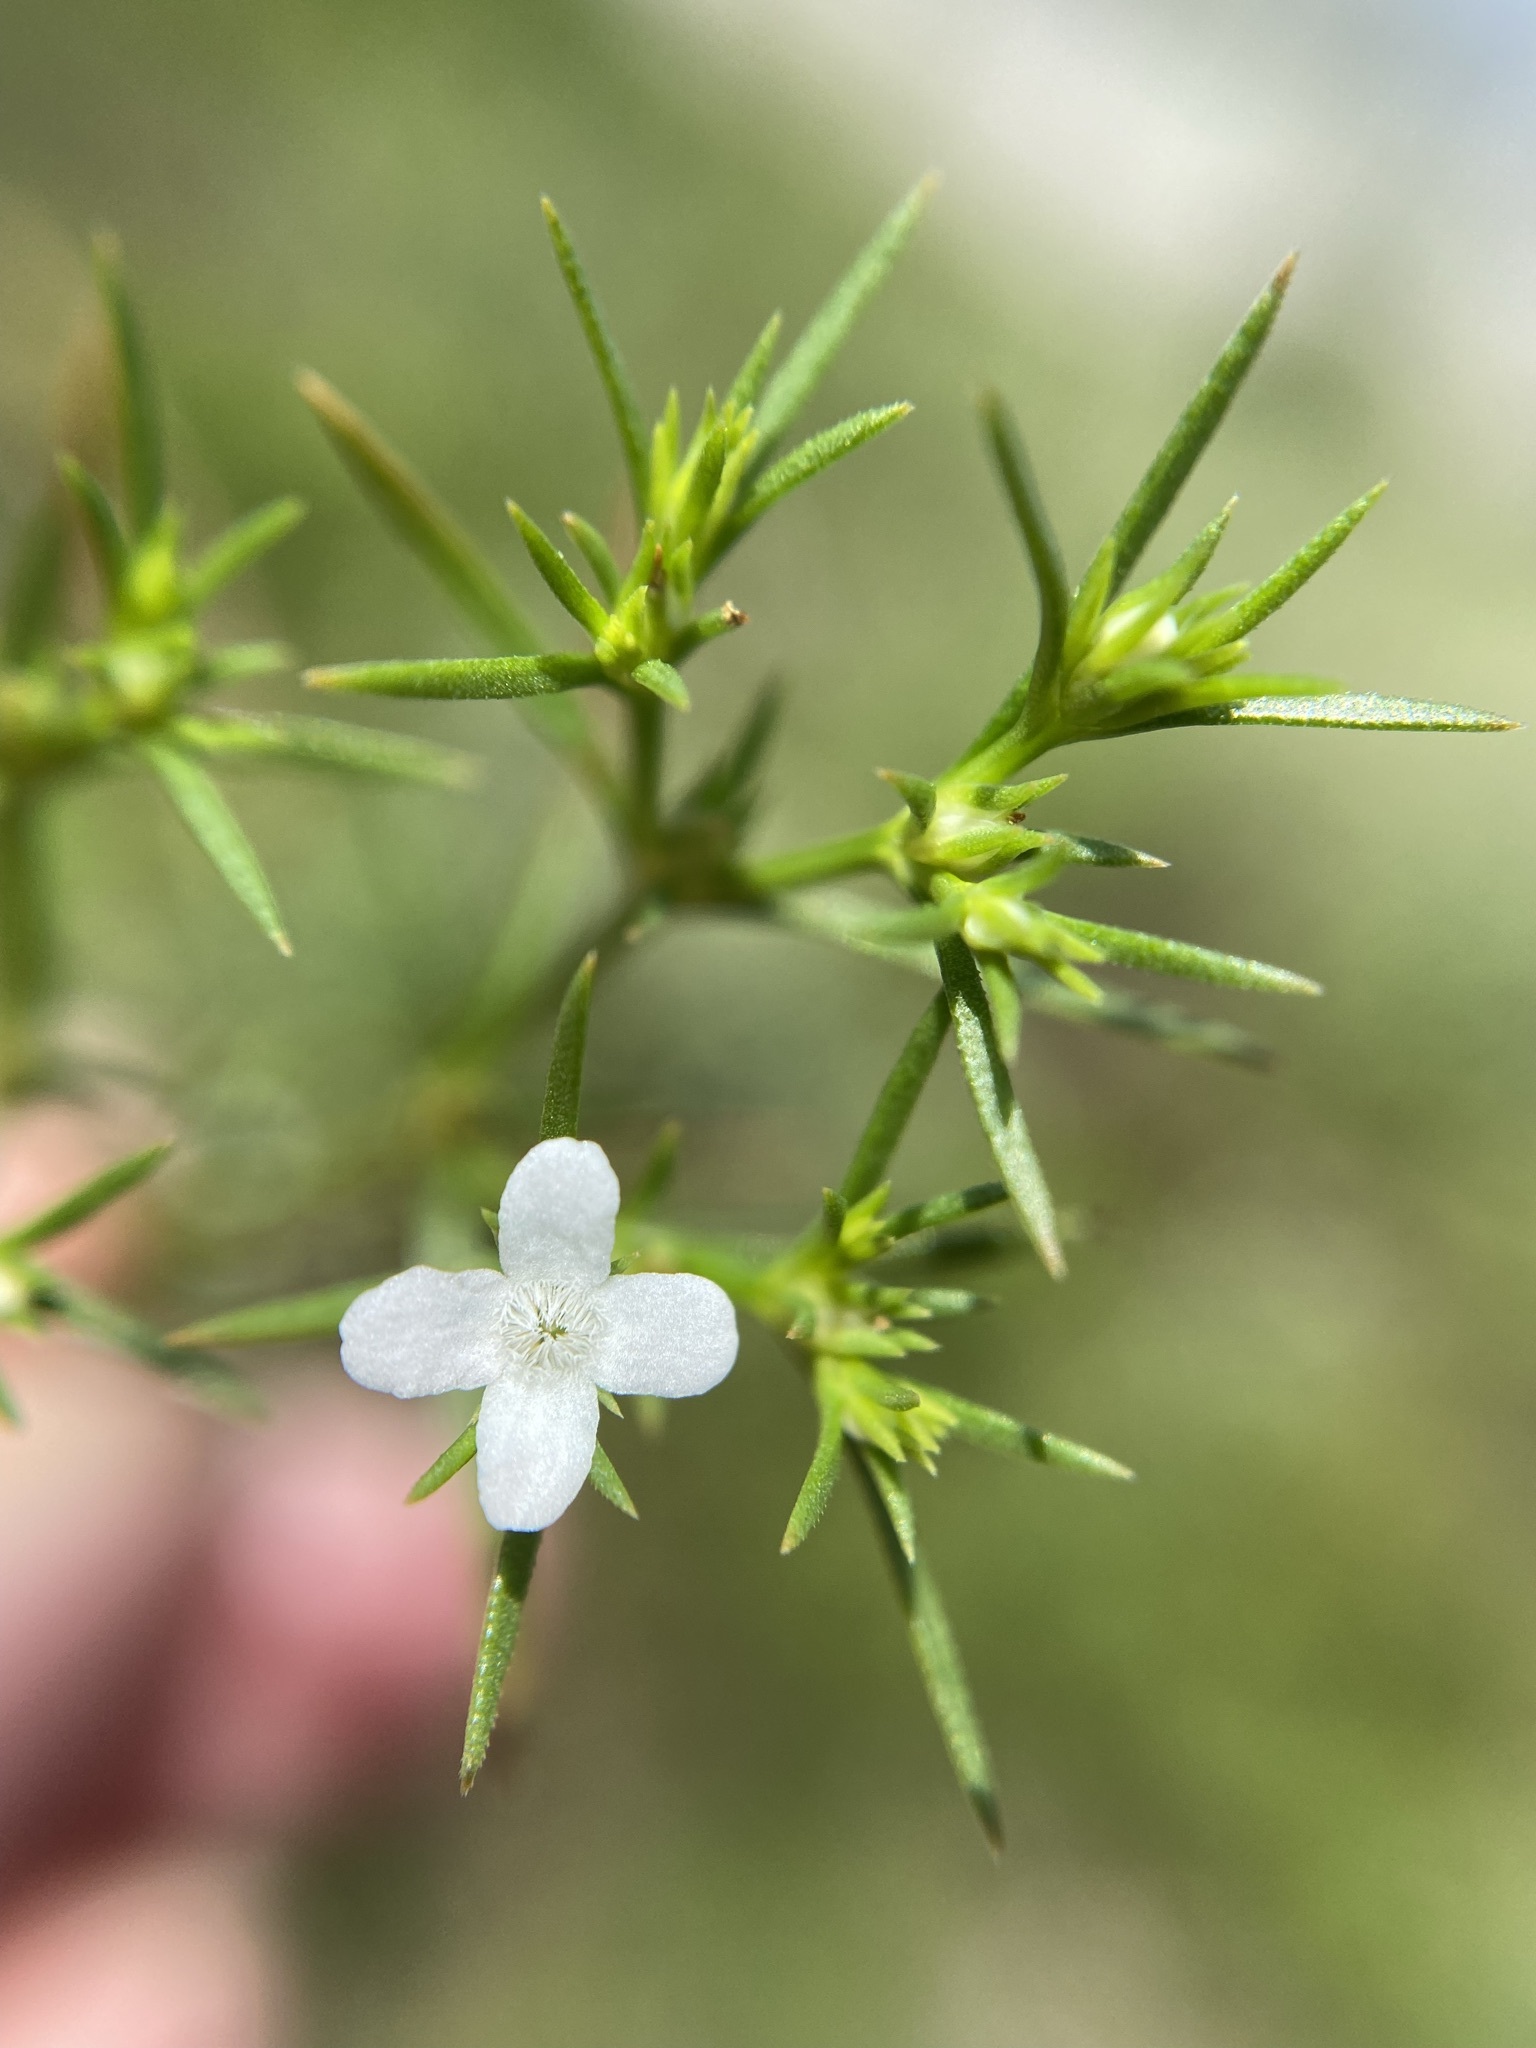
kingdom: Plantae
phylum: Tracheophyta
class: Magnoliopsida
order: Lamiales
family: Tetrachondraceae
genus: Polypremum
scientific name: Polypremum procumbens
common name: Juniper-leaf
